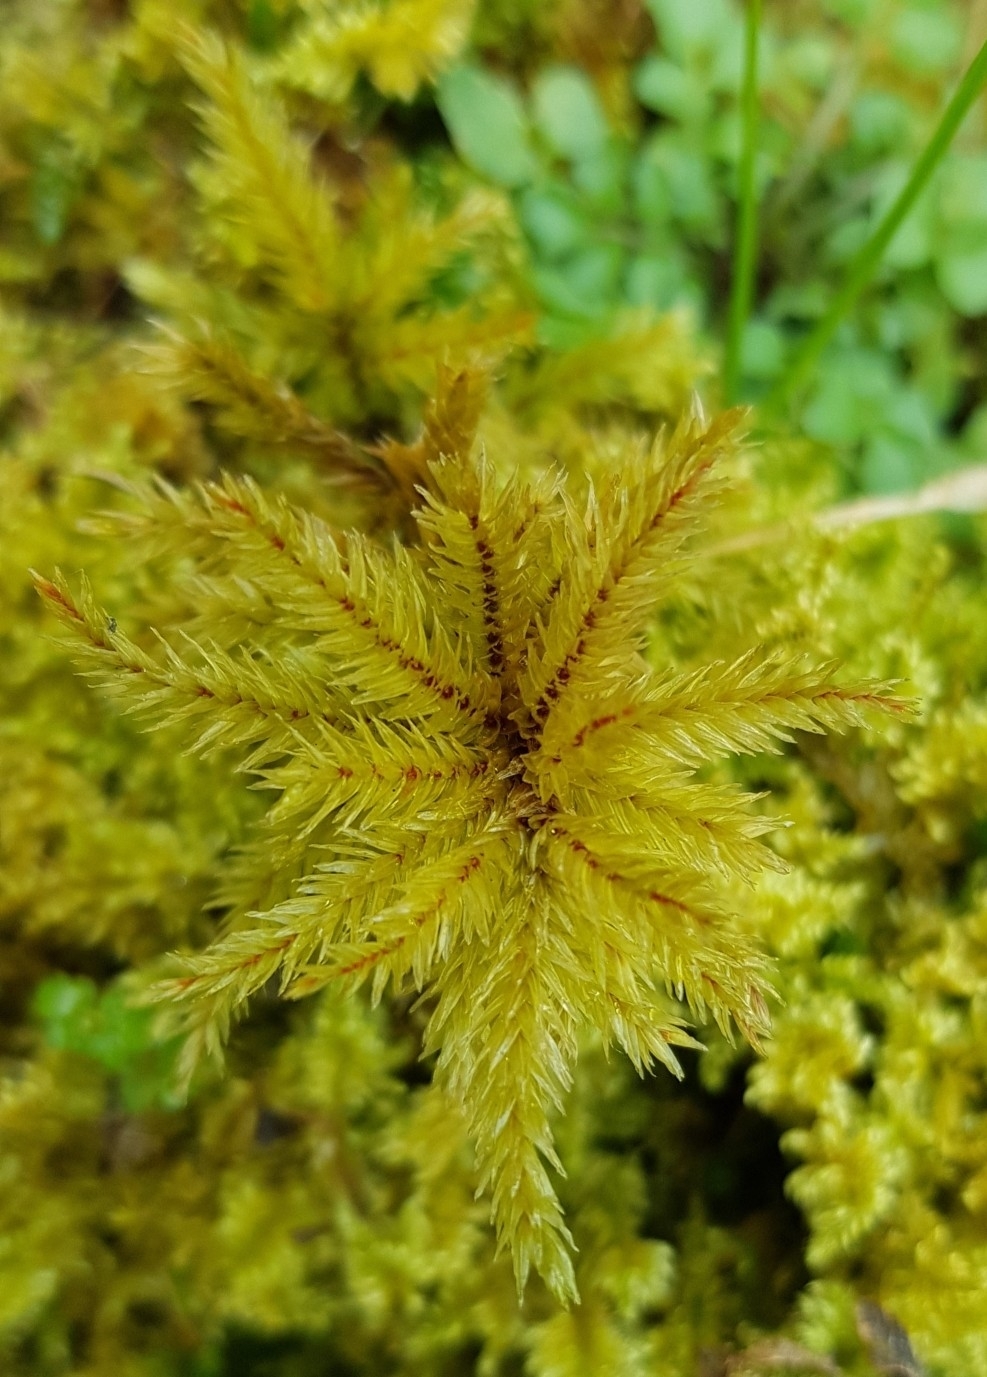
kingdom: Plantae
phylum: Bryophyta
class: Bryopsida
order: Hypnales
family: Climaciaceae
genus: Climacium
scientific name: Climacium dendroides
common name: Northern tree moss
